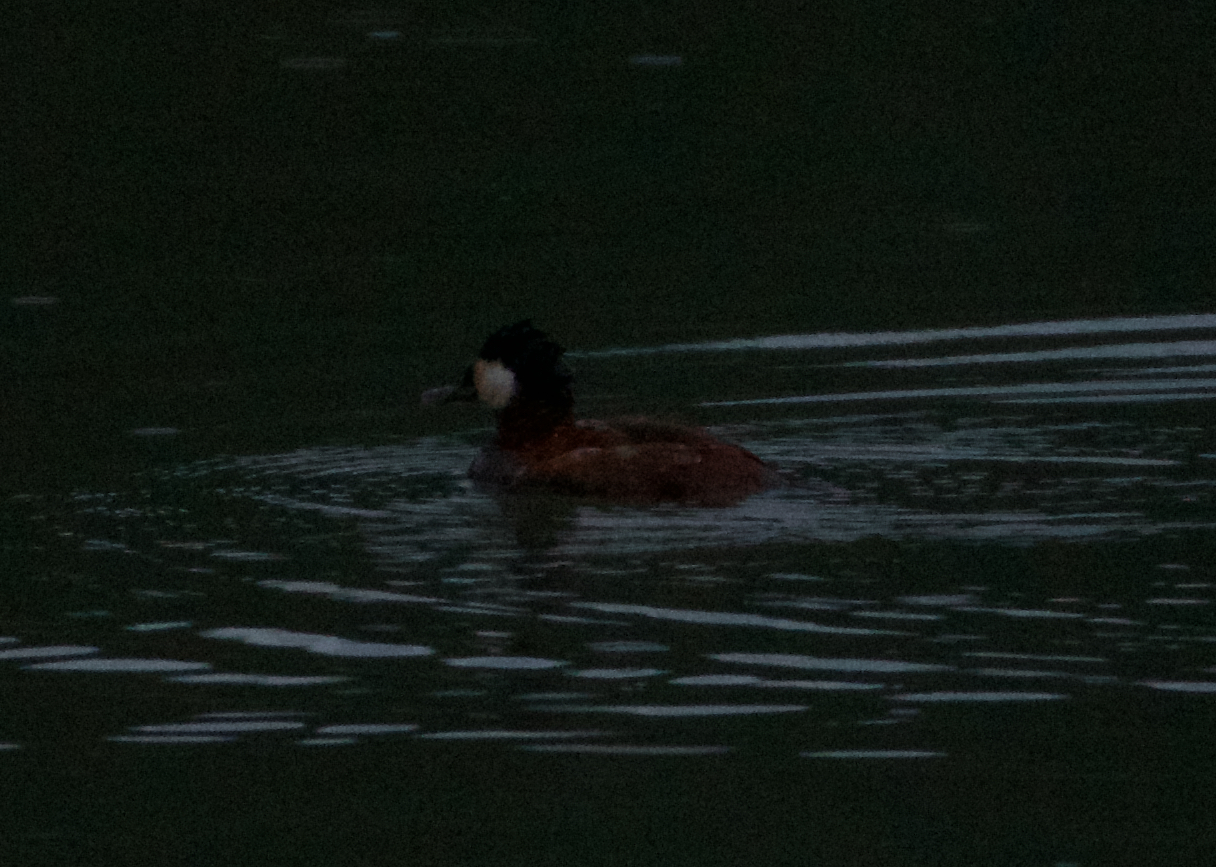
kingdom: Animalia
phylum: Chordata
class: Aves
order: Anseriformes
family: Anatidae
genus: Oxyura
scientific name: Oxyura jamaicensis
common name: Ruddy duck
